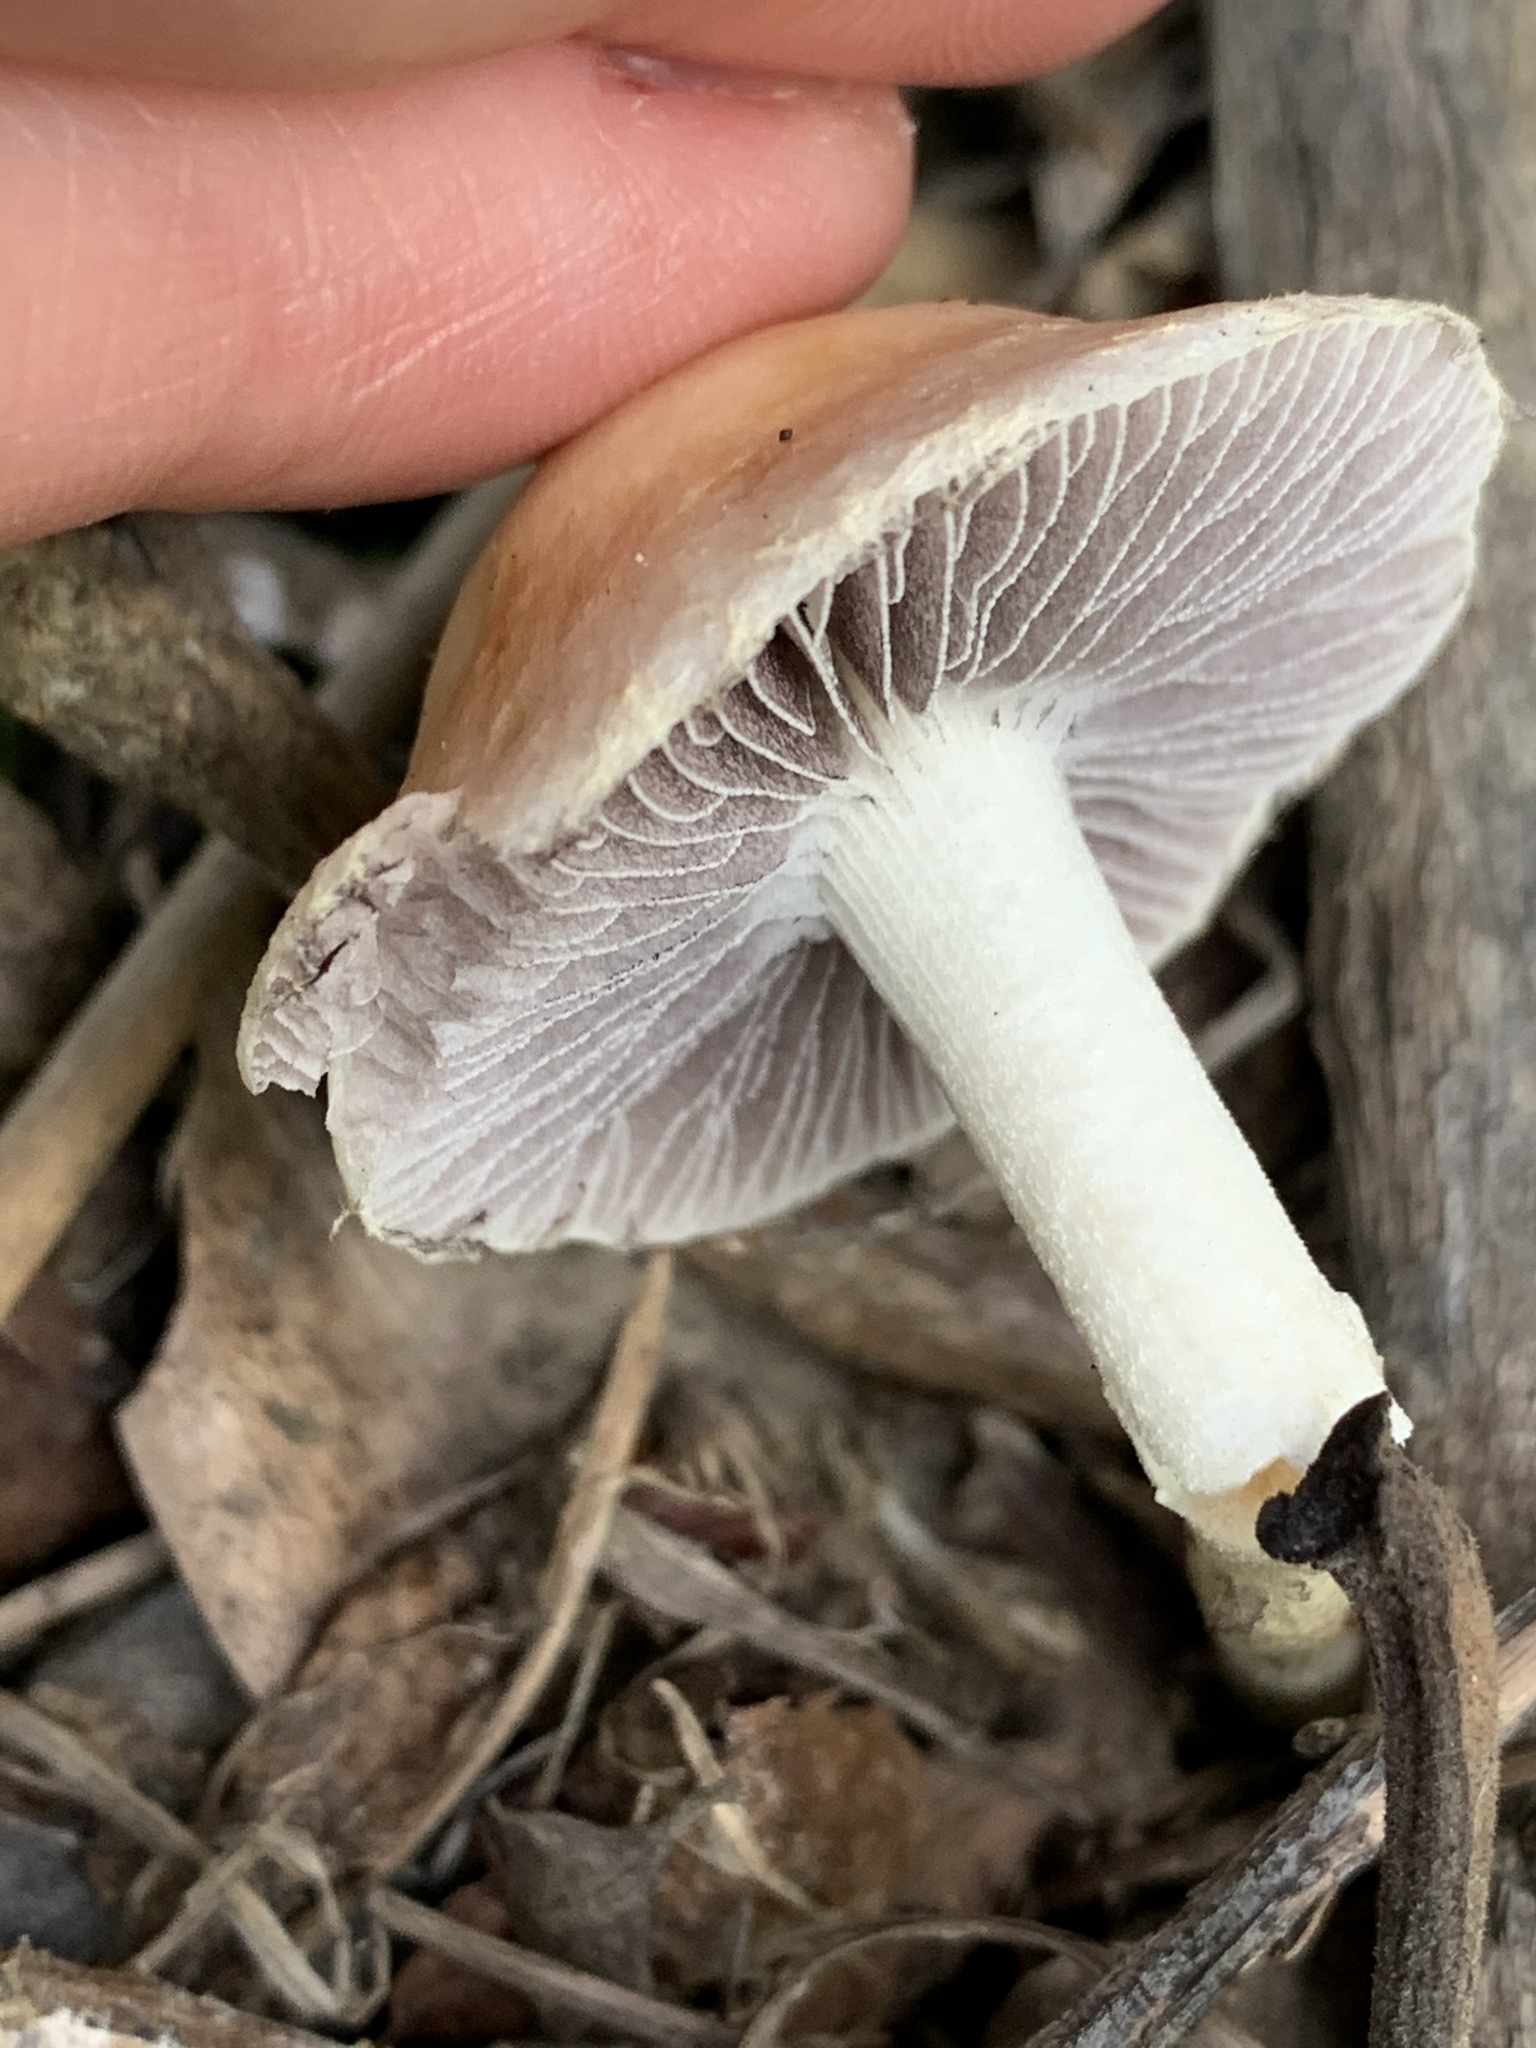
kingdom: Fungi
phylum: Basidiomycota
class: Agaricomycetes
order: Agaricales
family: Strophariaceae
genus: Leratiomyces
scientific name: Leratiomyces percevalii
